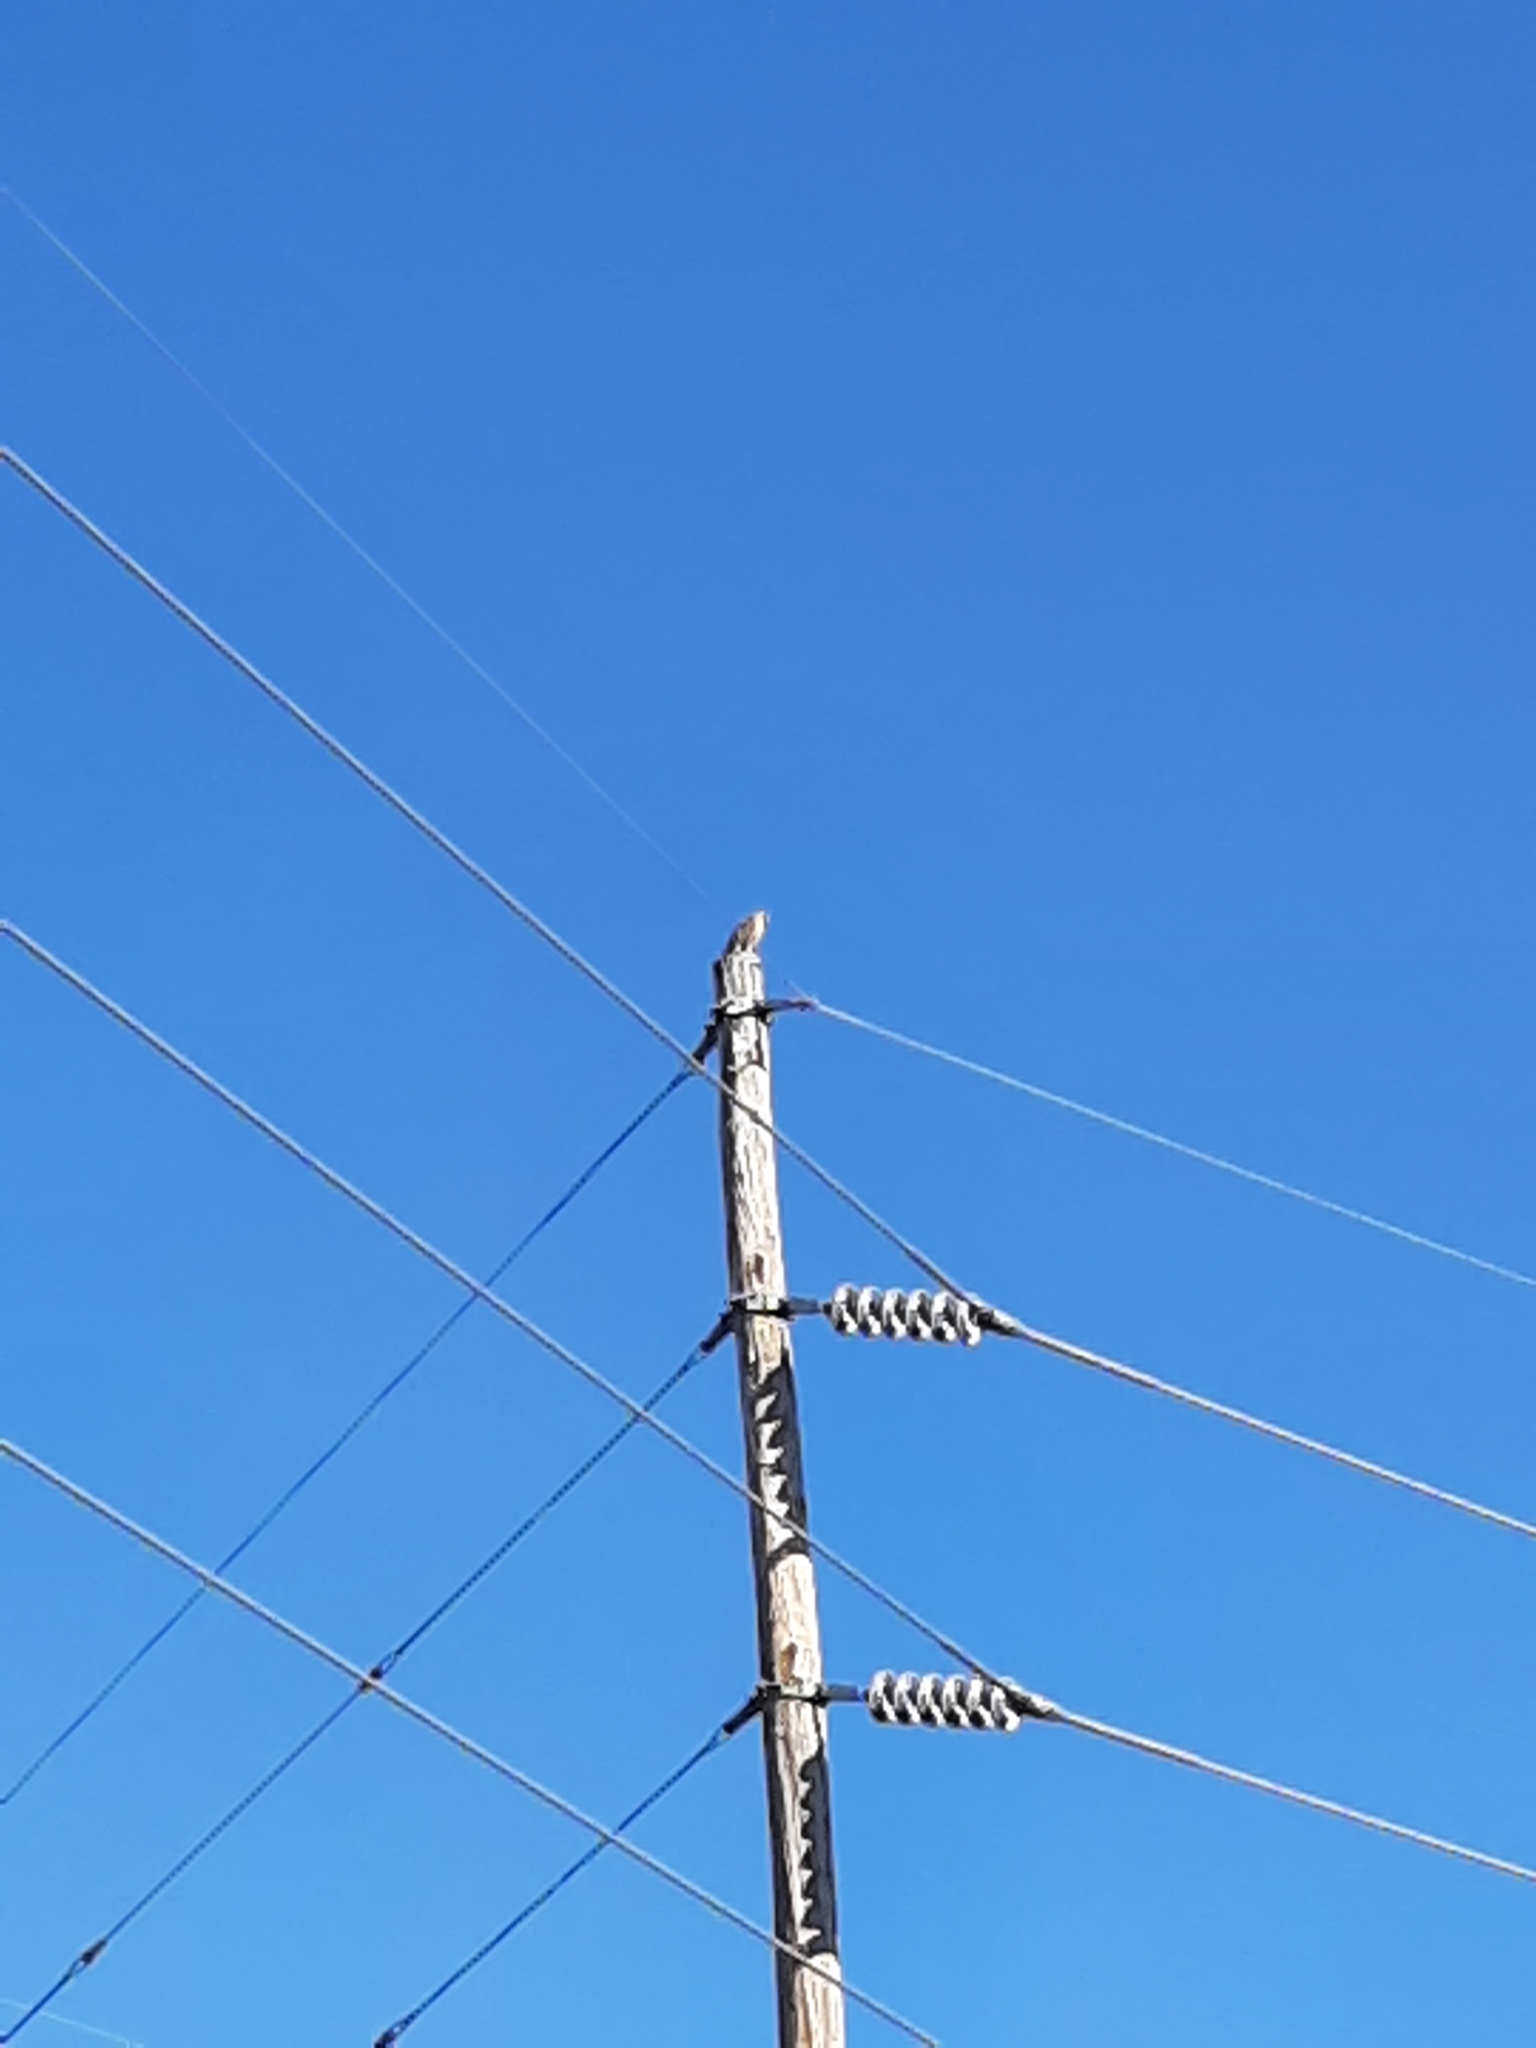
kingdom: Animalia
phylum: Chordata
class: Aves
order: Accipitriformes
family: Accipitridae
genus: Buteo
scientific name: Buteo lineatus
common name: Red-shouldered hawk
